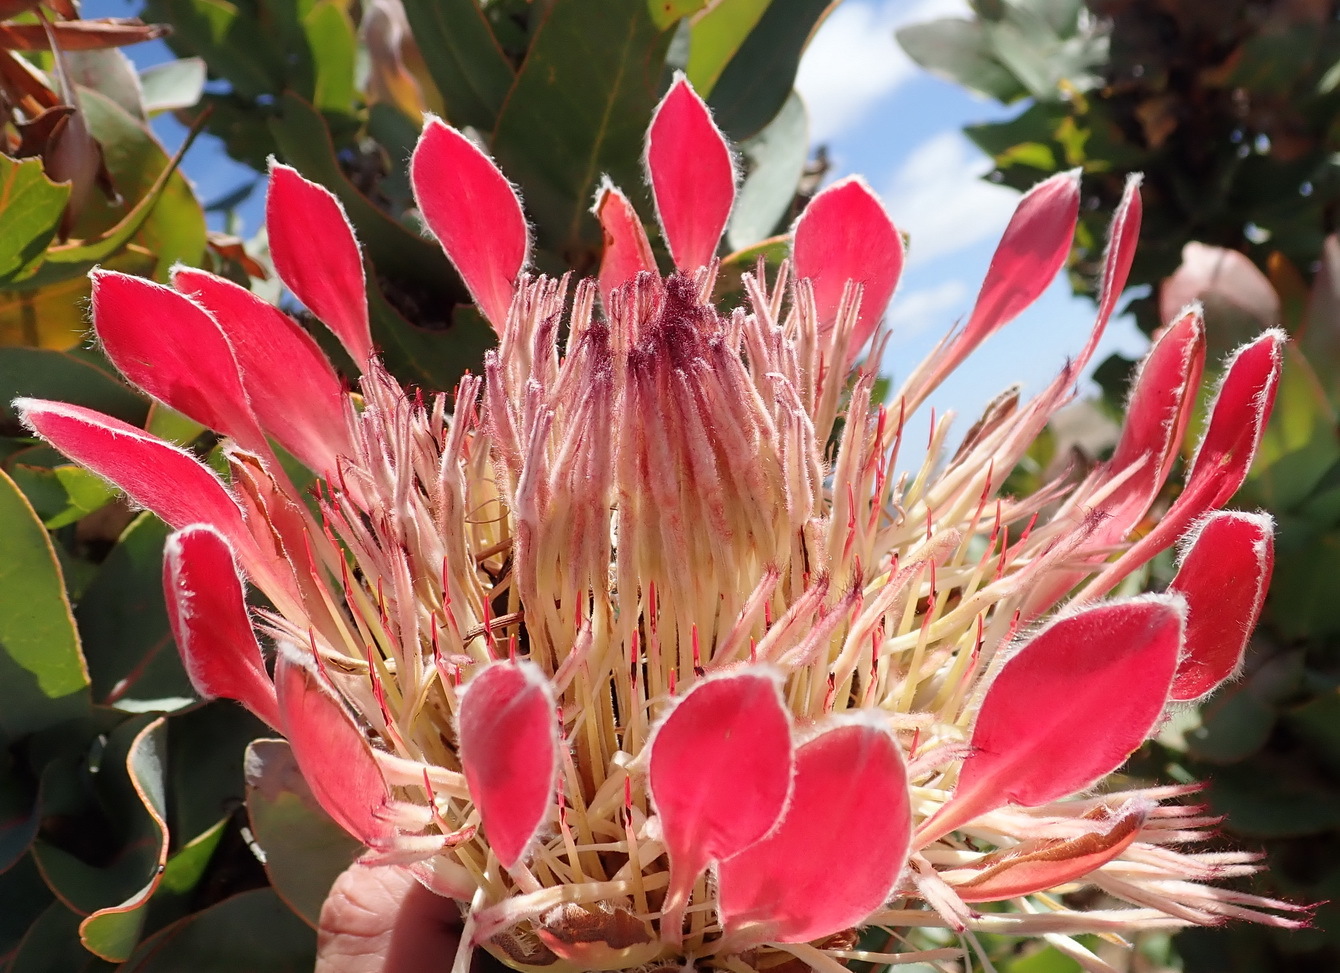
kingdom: Plantae
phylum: Tracheophyta
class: Magnoliopsida
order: Proteales
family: Proteaceae
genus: Protea
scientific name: Protea eximia
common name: Broad-leaved sugarbush
